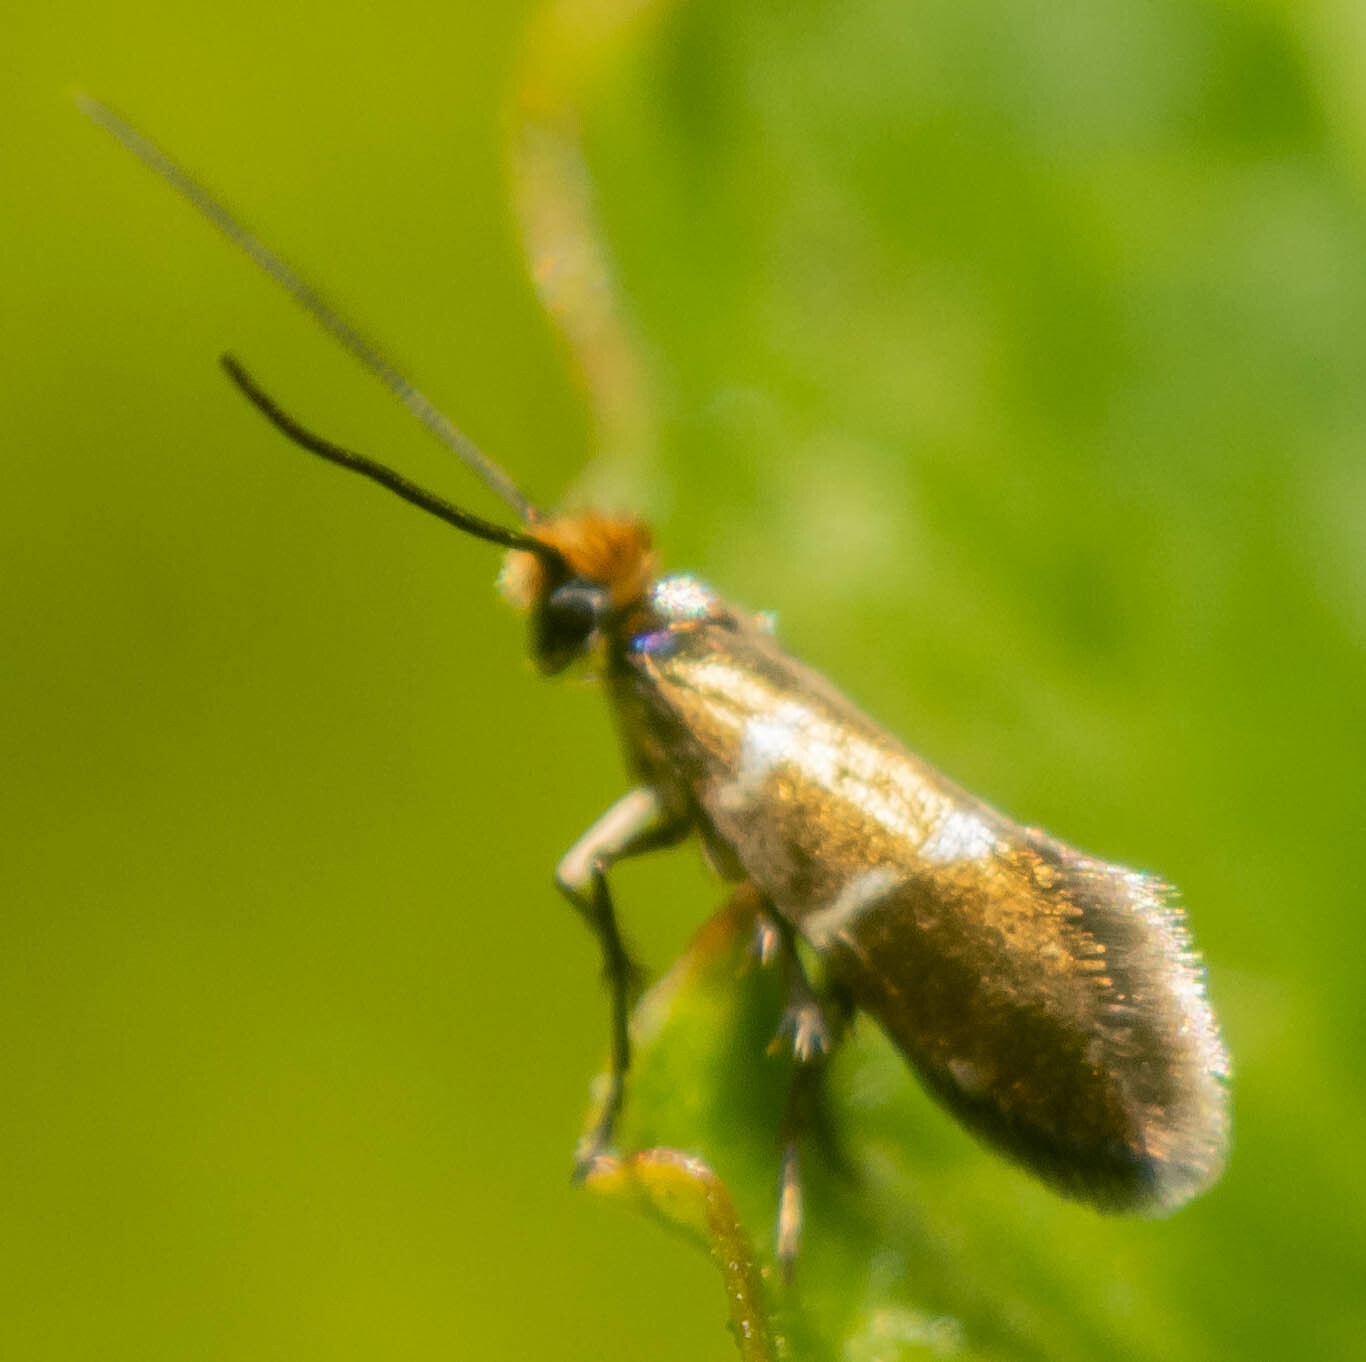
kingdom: Animalia
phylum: Arthropoda
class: Insecta
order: Lepidoptera
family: Micropterigidae
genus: Micropterix
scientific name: Micropterix aruncella
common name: White-barred gold
